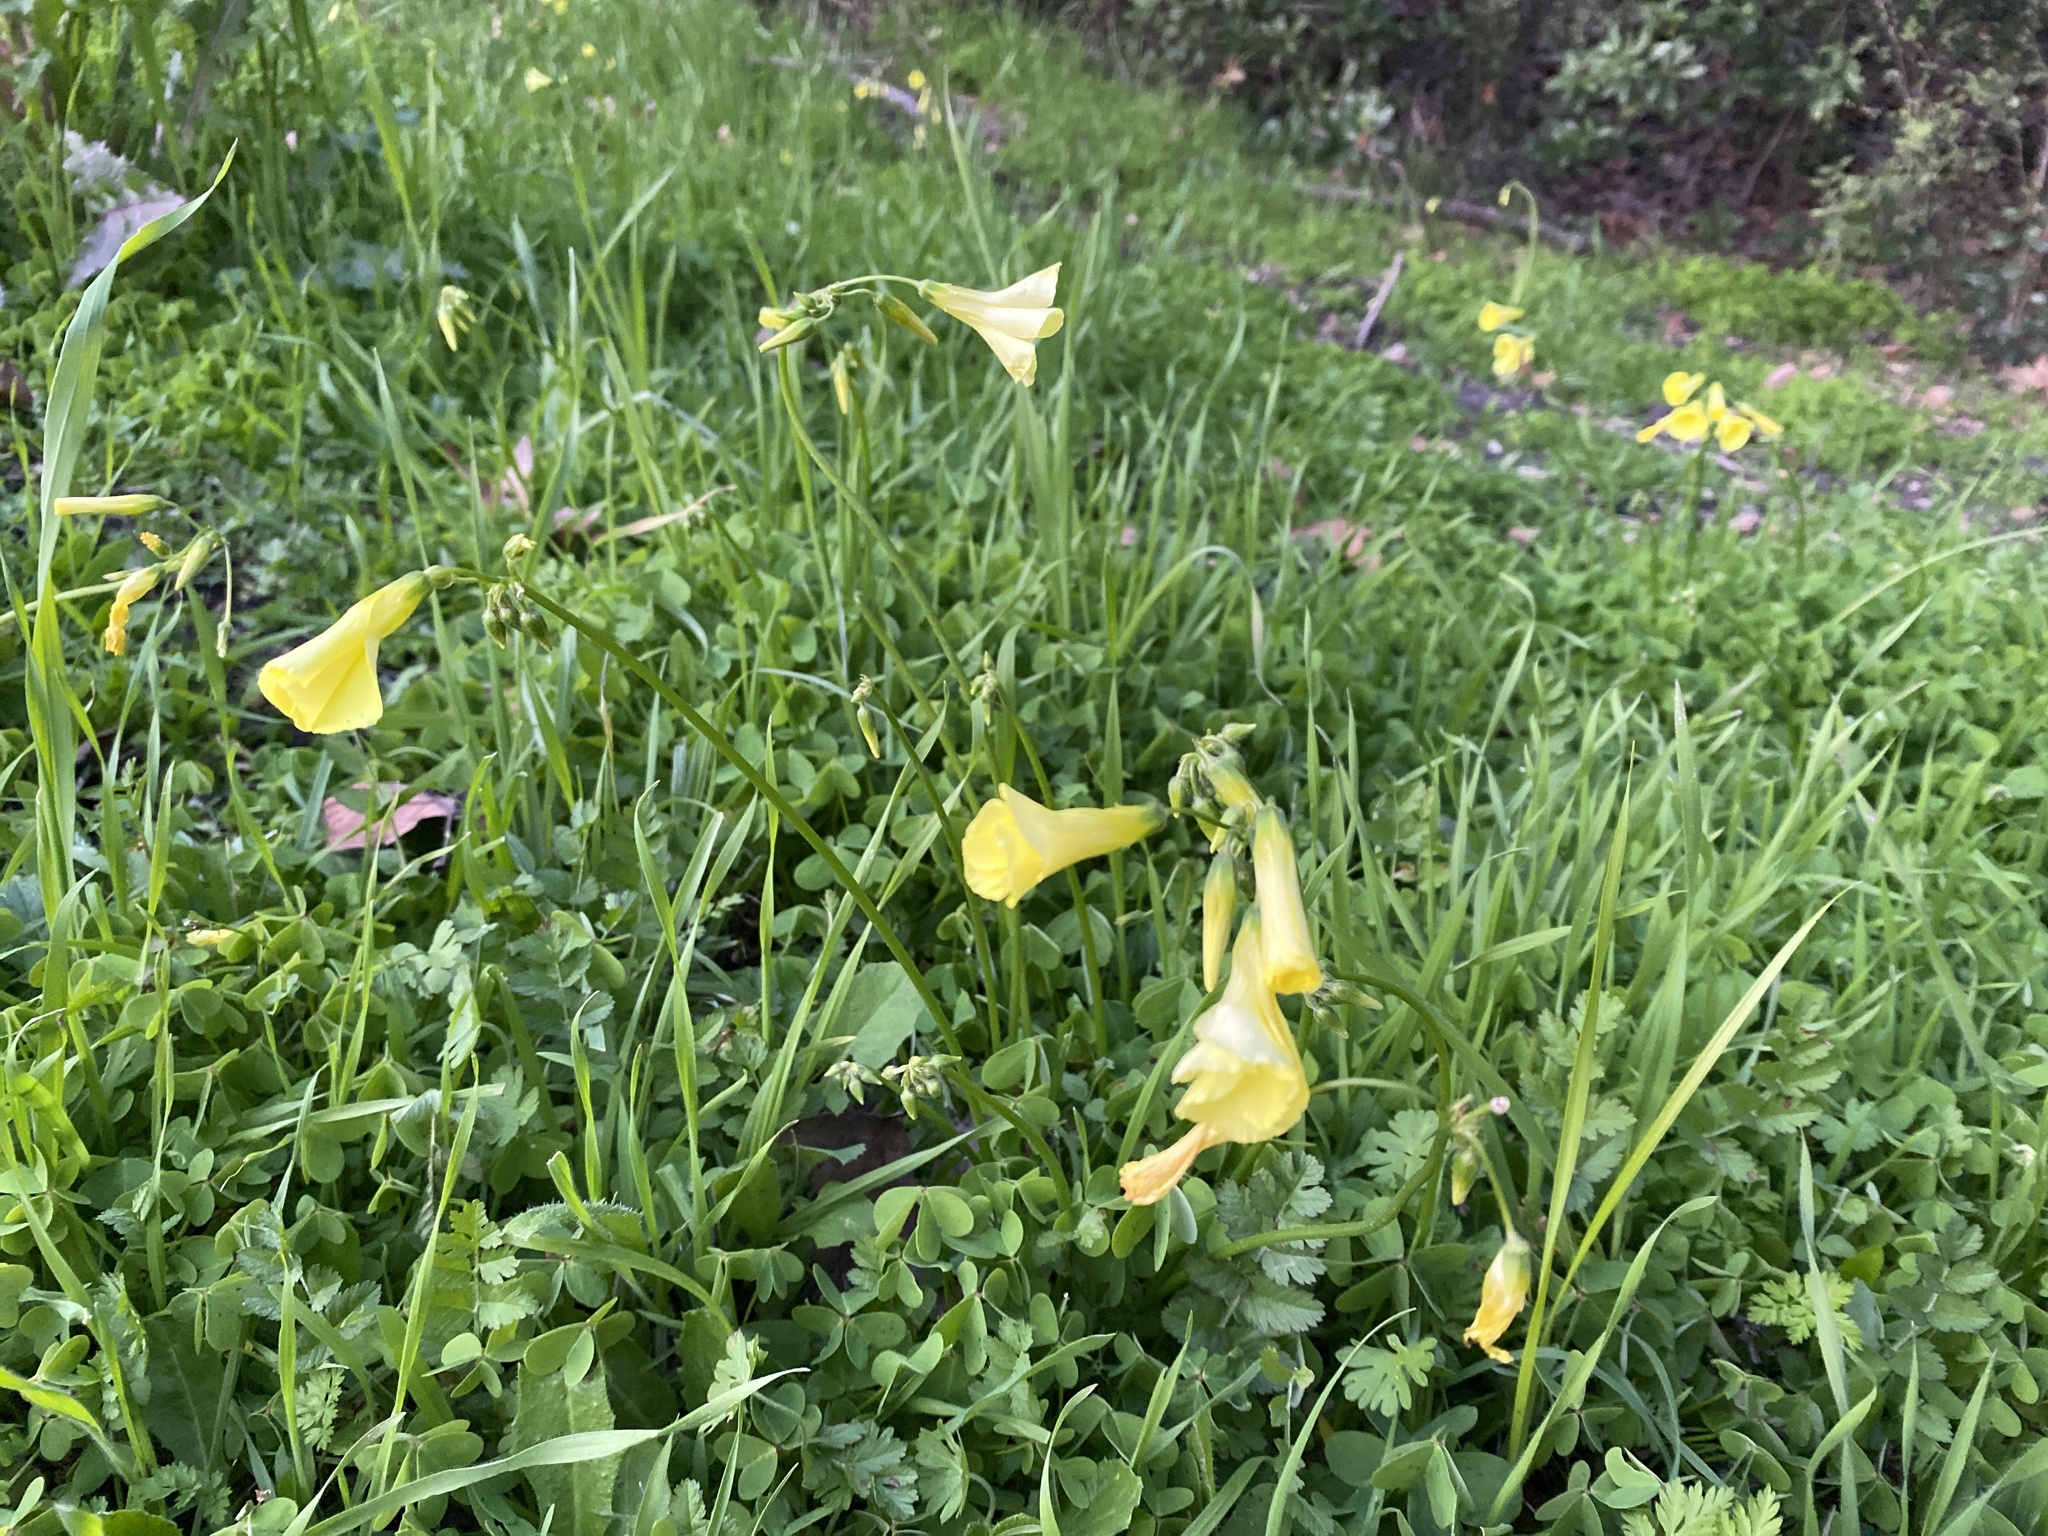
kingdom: Plantae
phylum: Tracheophyta
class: Magnoliopsida
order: Oxalidales
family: Oxalidaceae
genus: Oxalis
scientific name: Oxalis pes-caprae
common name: Bermuda-buttercup
